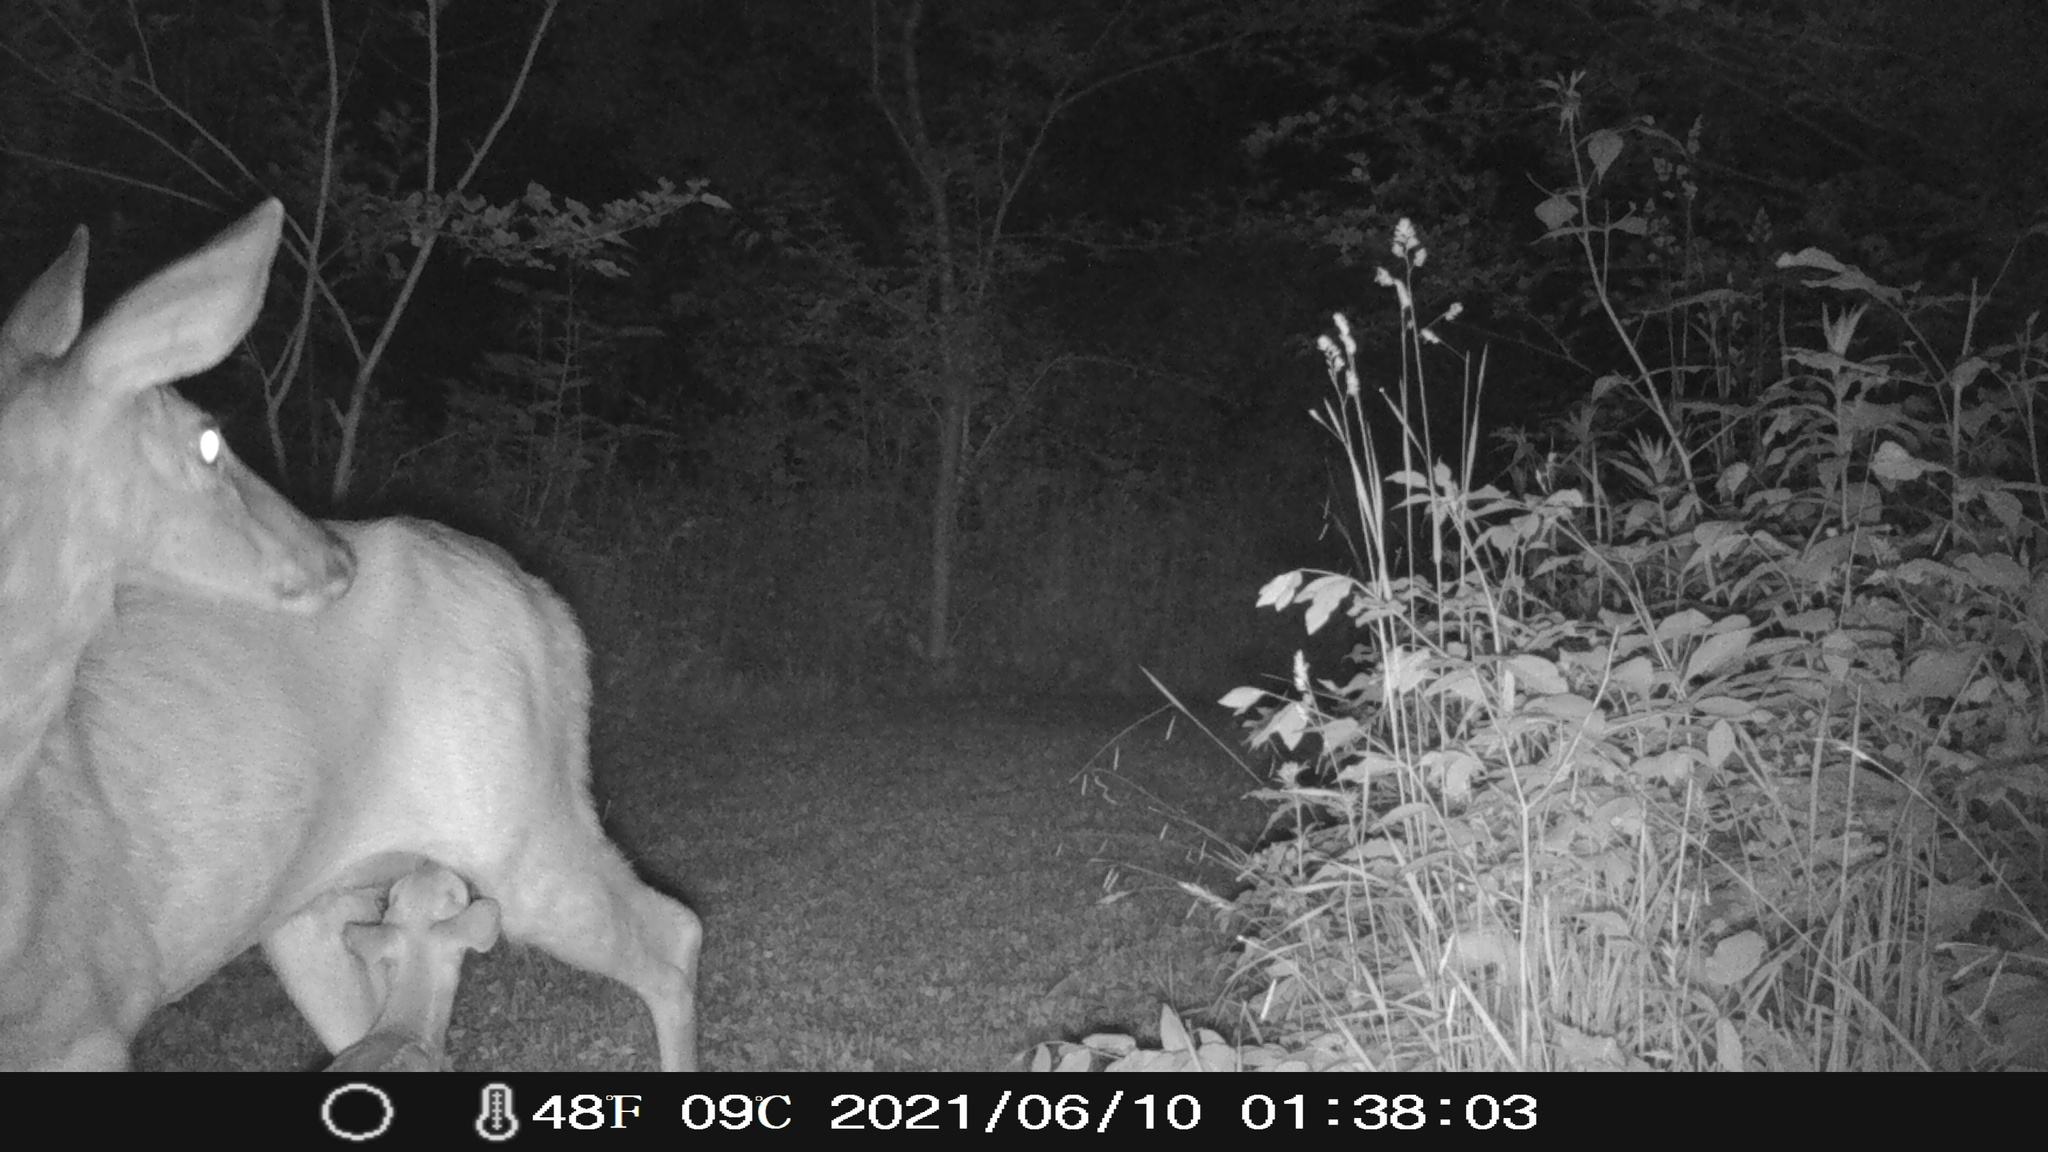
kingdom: Animalia
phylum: Chordata
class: Mammalia
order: Artiodactyla
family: Cervidae
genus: Odocoileus
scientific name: Odocoileus virginianus
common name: White-tailed deer
